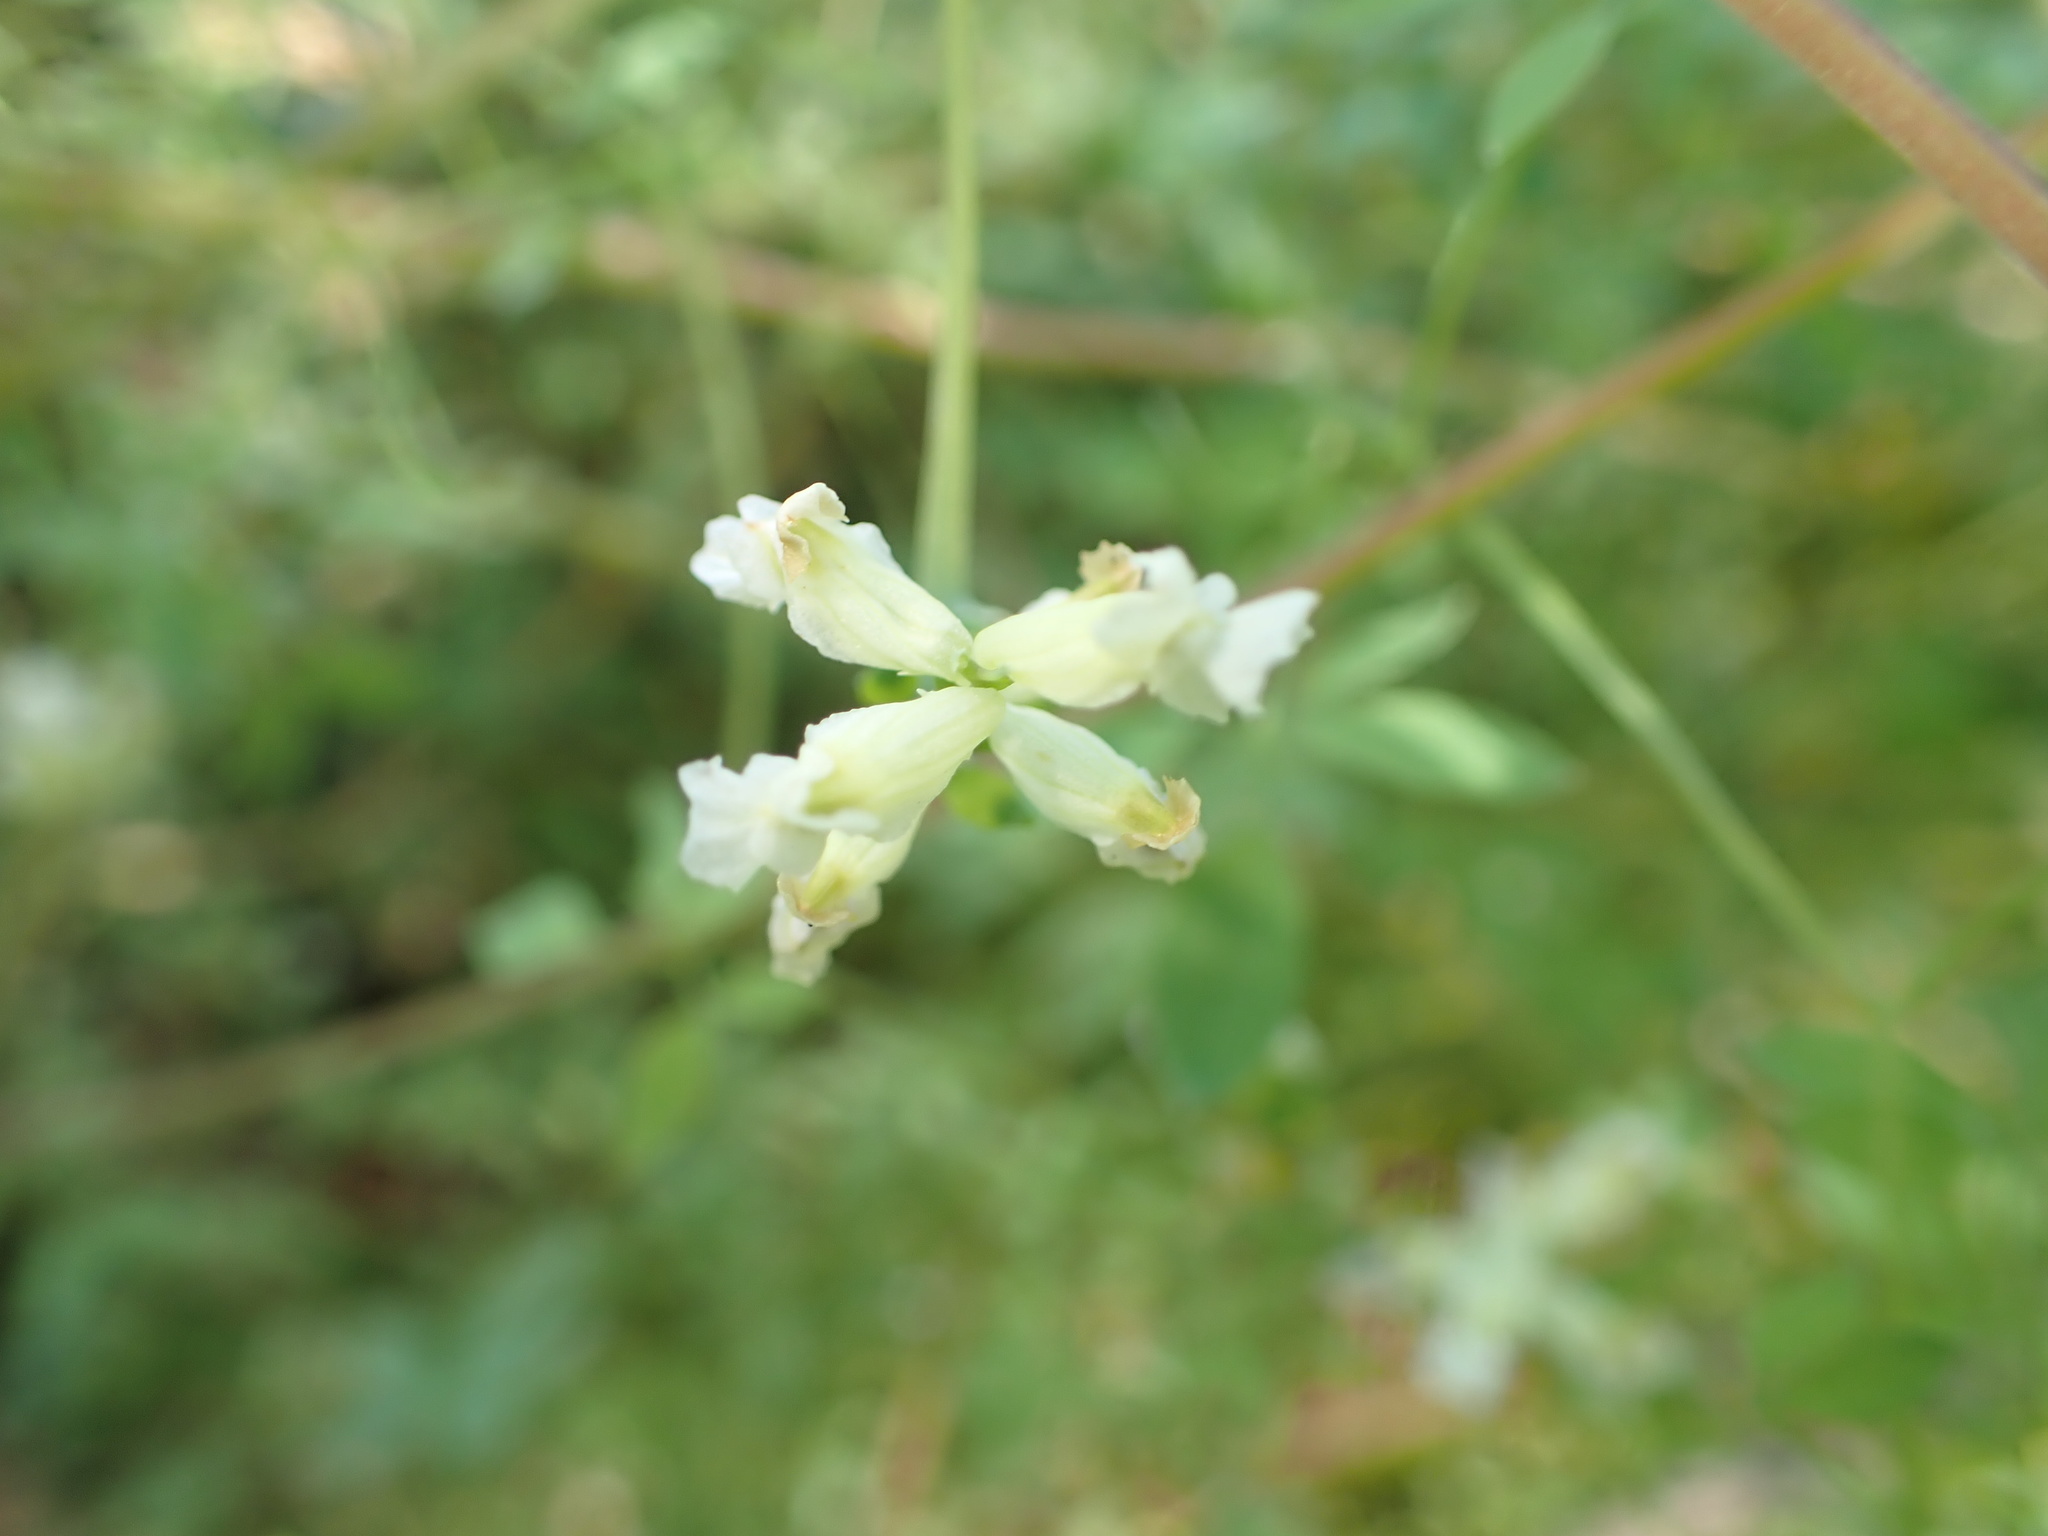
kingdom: Plantae
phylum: Tracheophyta
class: Magnoliopsida
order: Ranunculales
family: Papaveraceae
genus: Ceratocapnos
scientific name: Ceratocapnos claviculata
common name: Climbing corydalis
